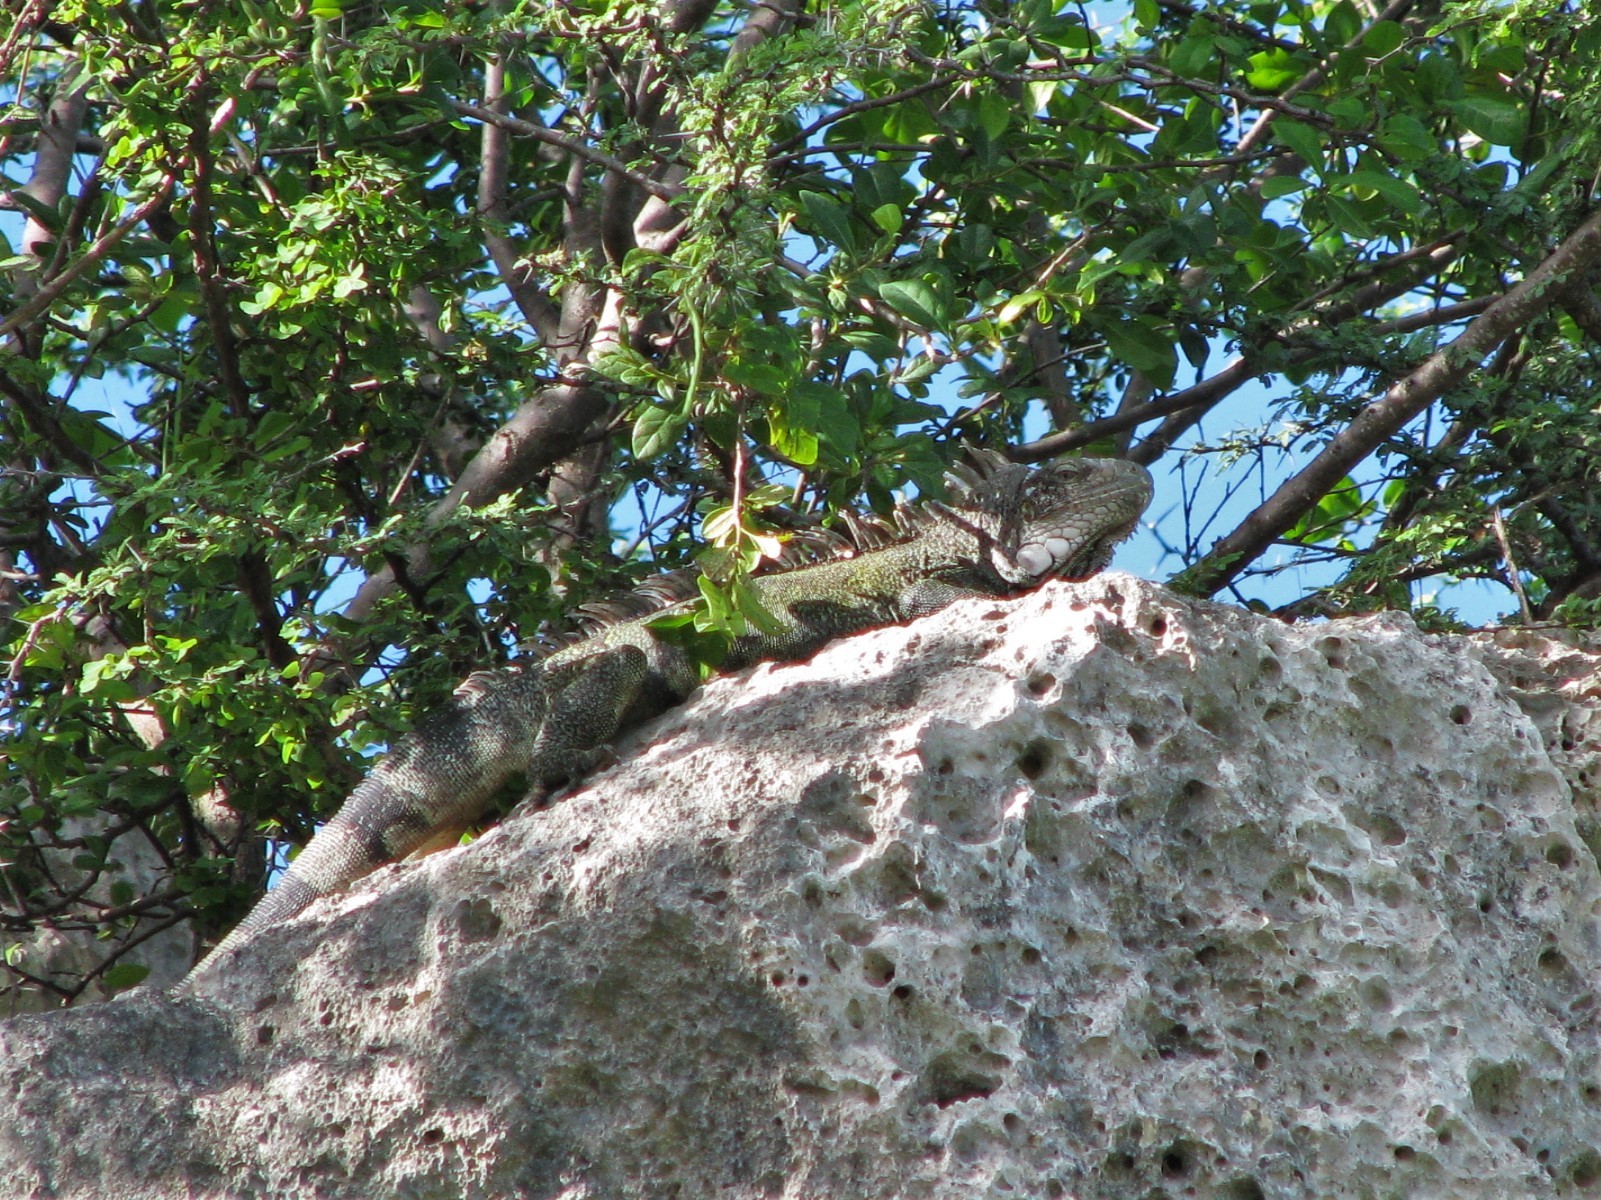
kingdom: Animalia
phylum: Chordata
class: Squamata
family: Iguanidae
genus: Iguana
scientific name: Iguana iguana
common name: Green iguana
